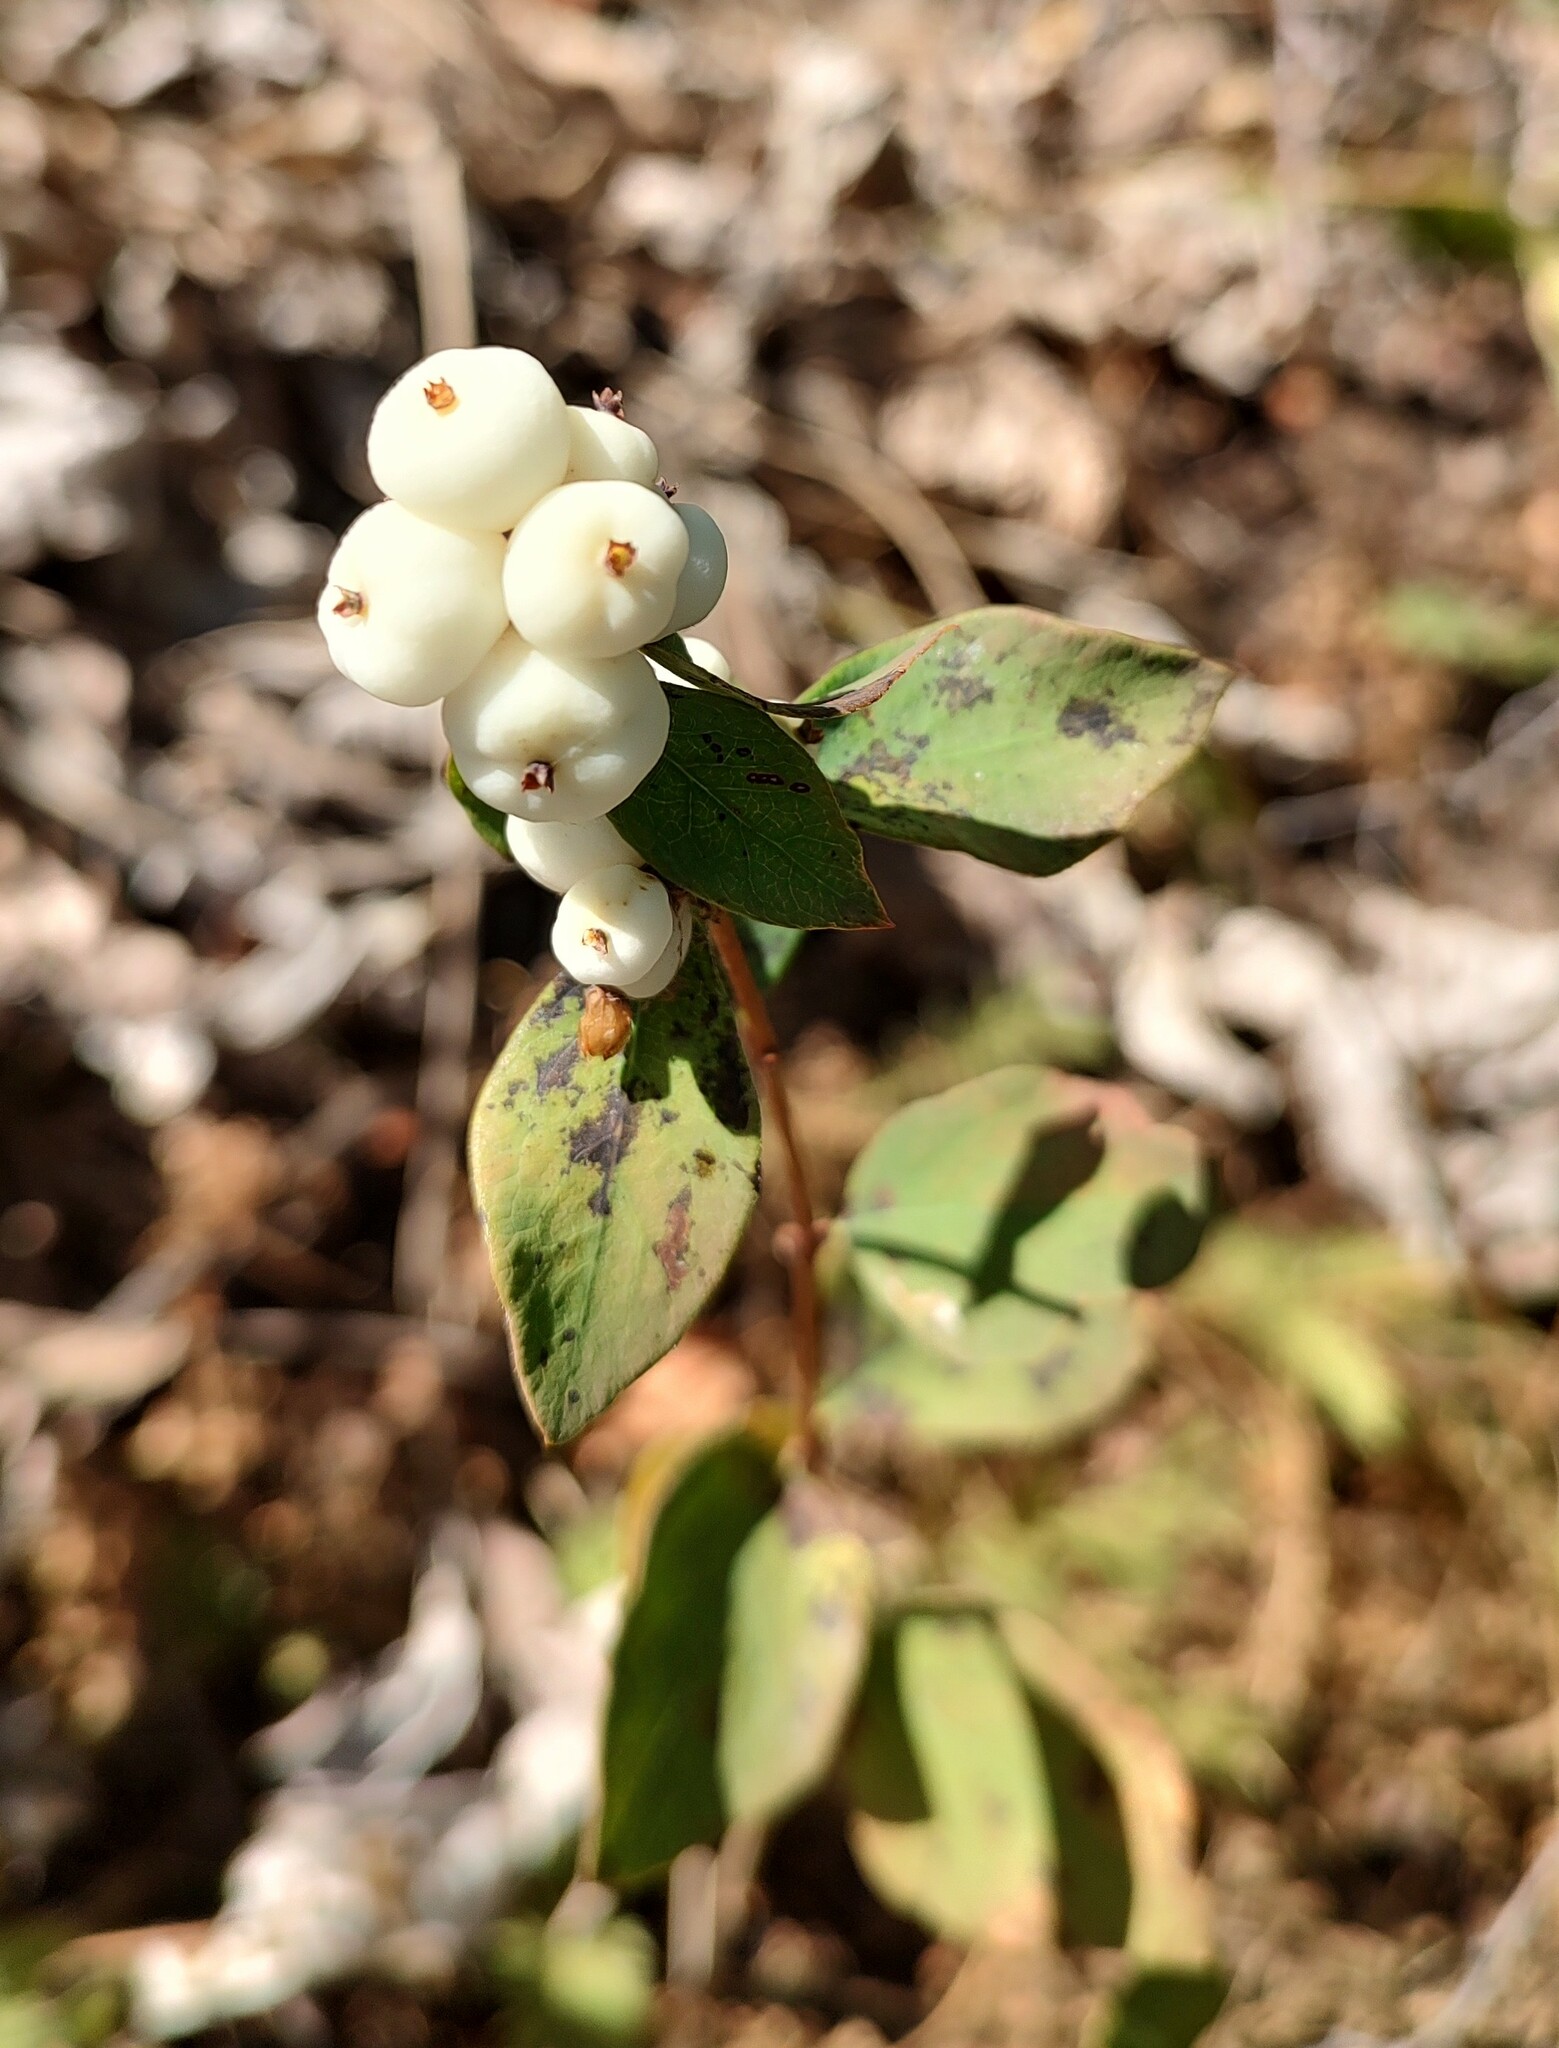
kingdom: Plantae
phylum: Tracheophyta
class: Magnoliopsida
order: Dipsacales
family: Caprifoliaceae
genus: Symphoricarpos
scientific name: Symphoricarpos albus
